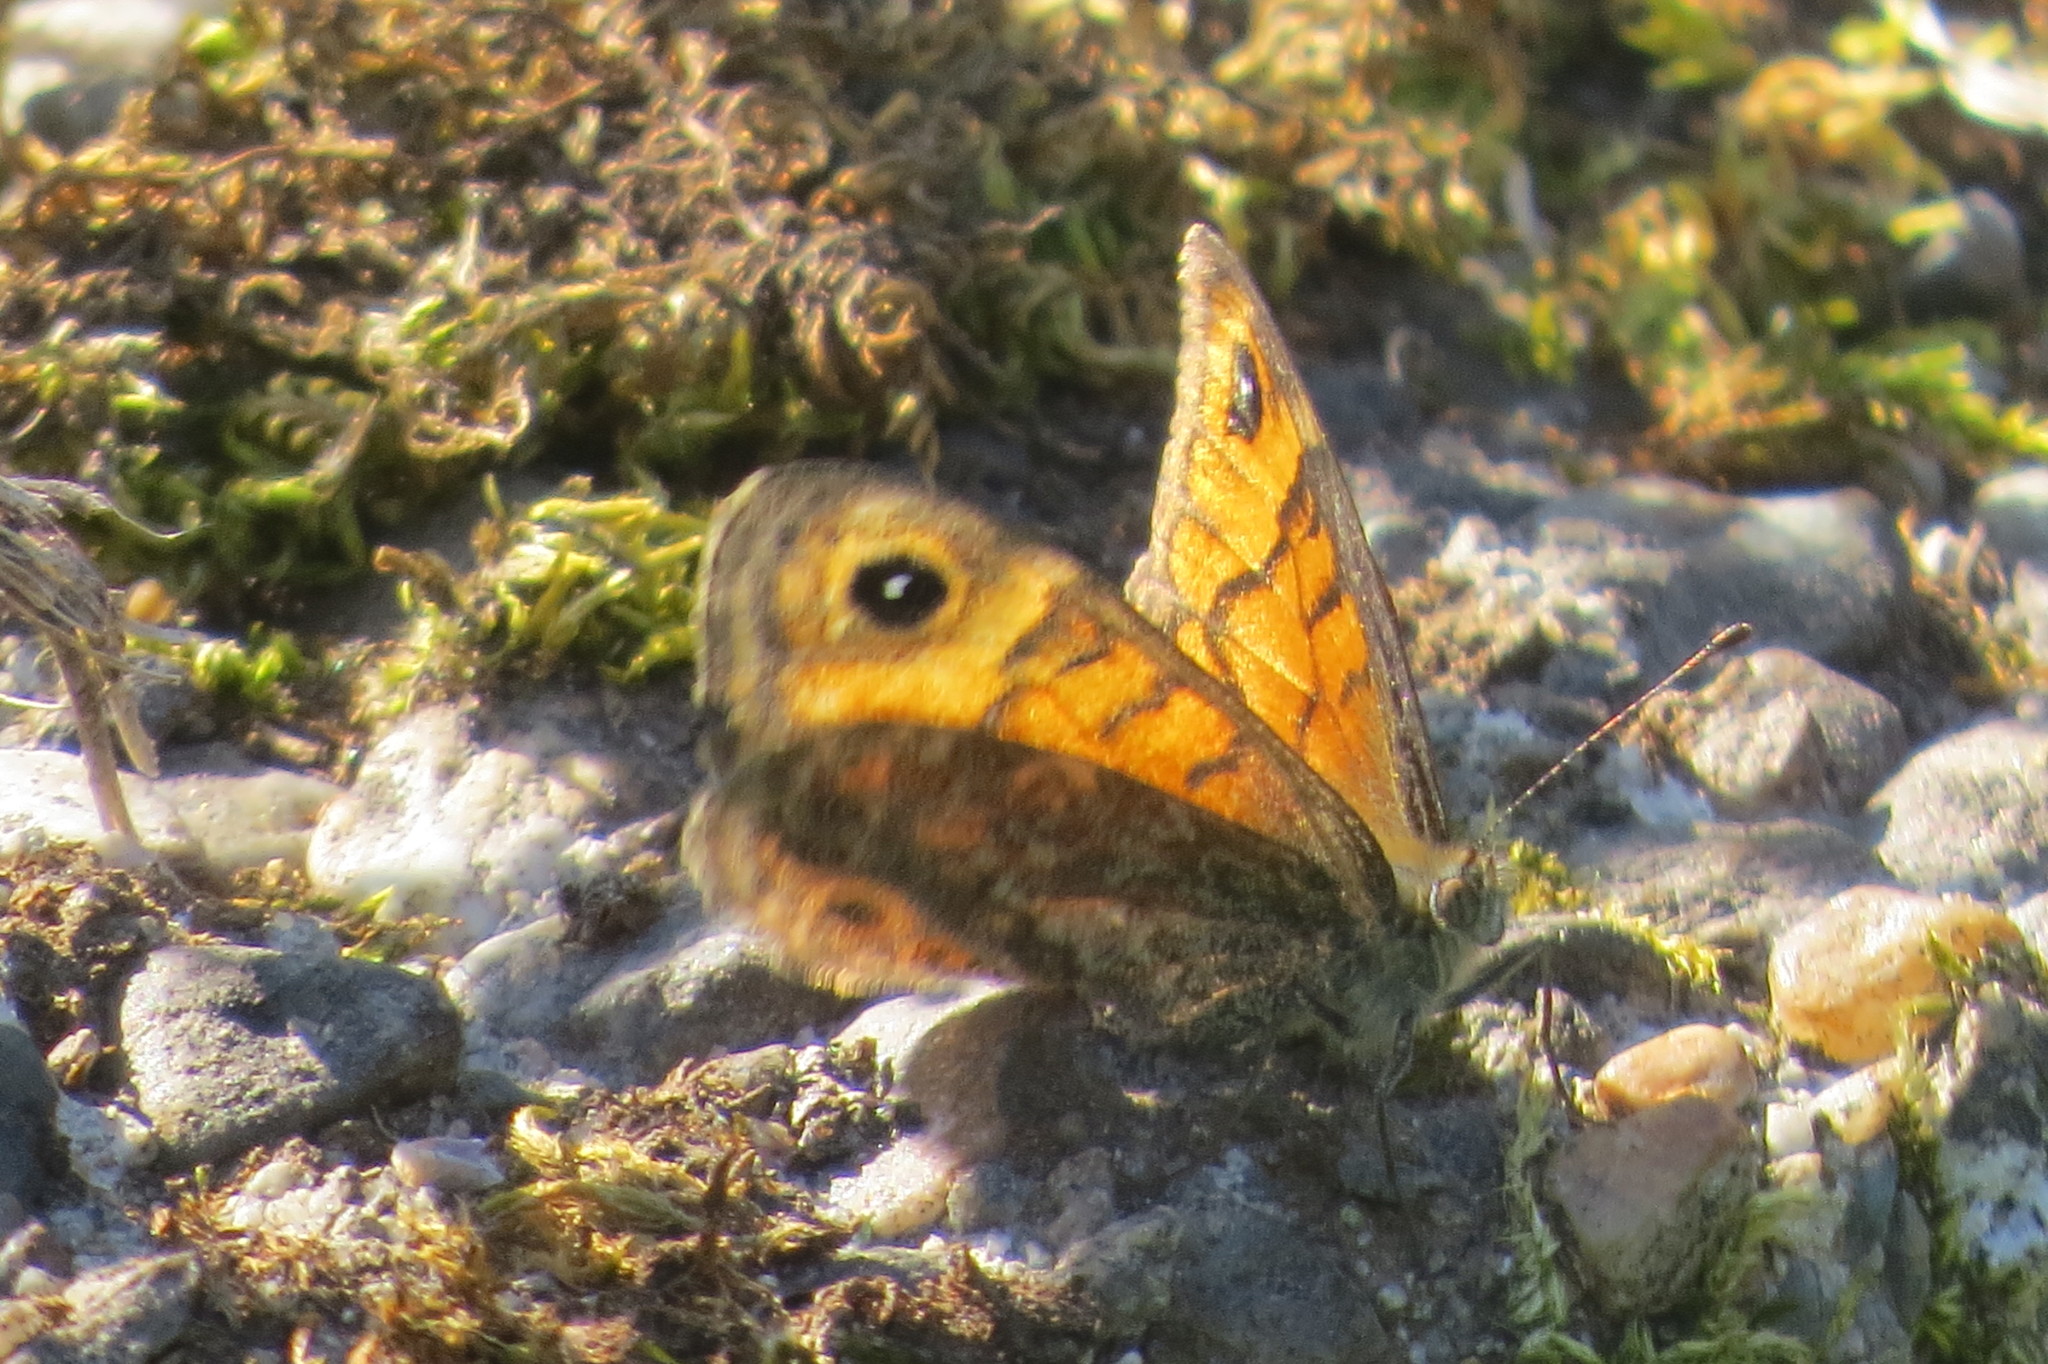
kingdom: Animalia
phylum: Arthropoda
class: Insecta
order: Lepidoptera
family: Nymphalidae
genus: Pararge
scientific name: Pararge Lasiommata megera
